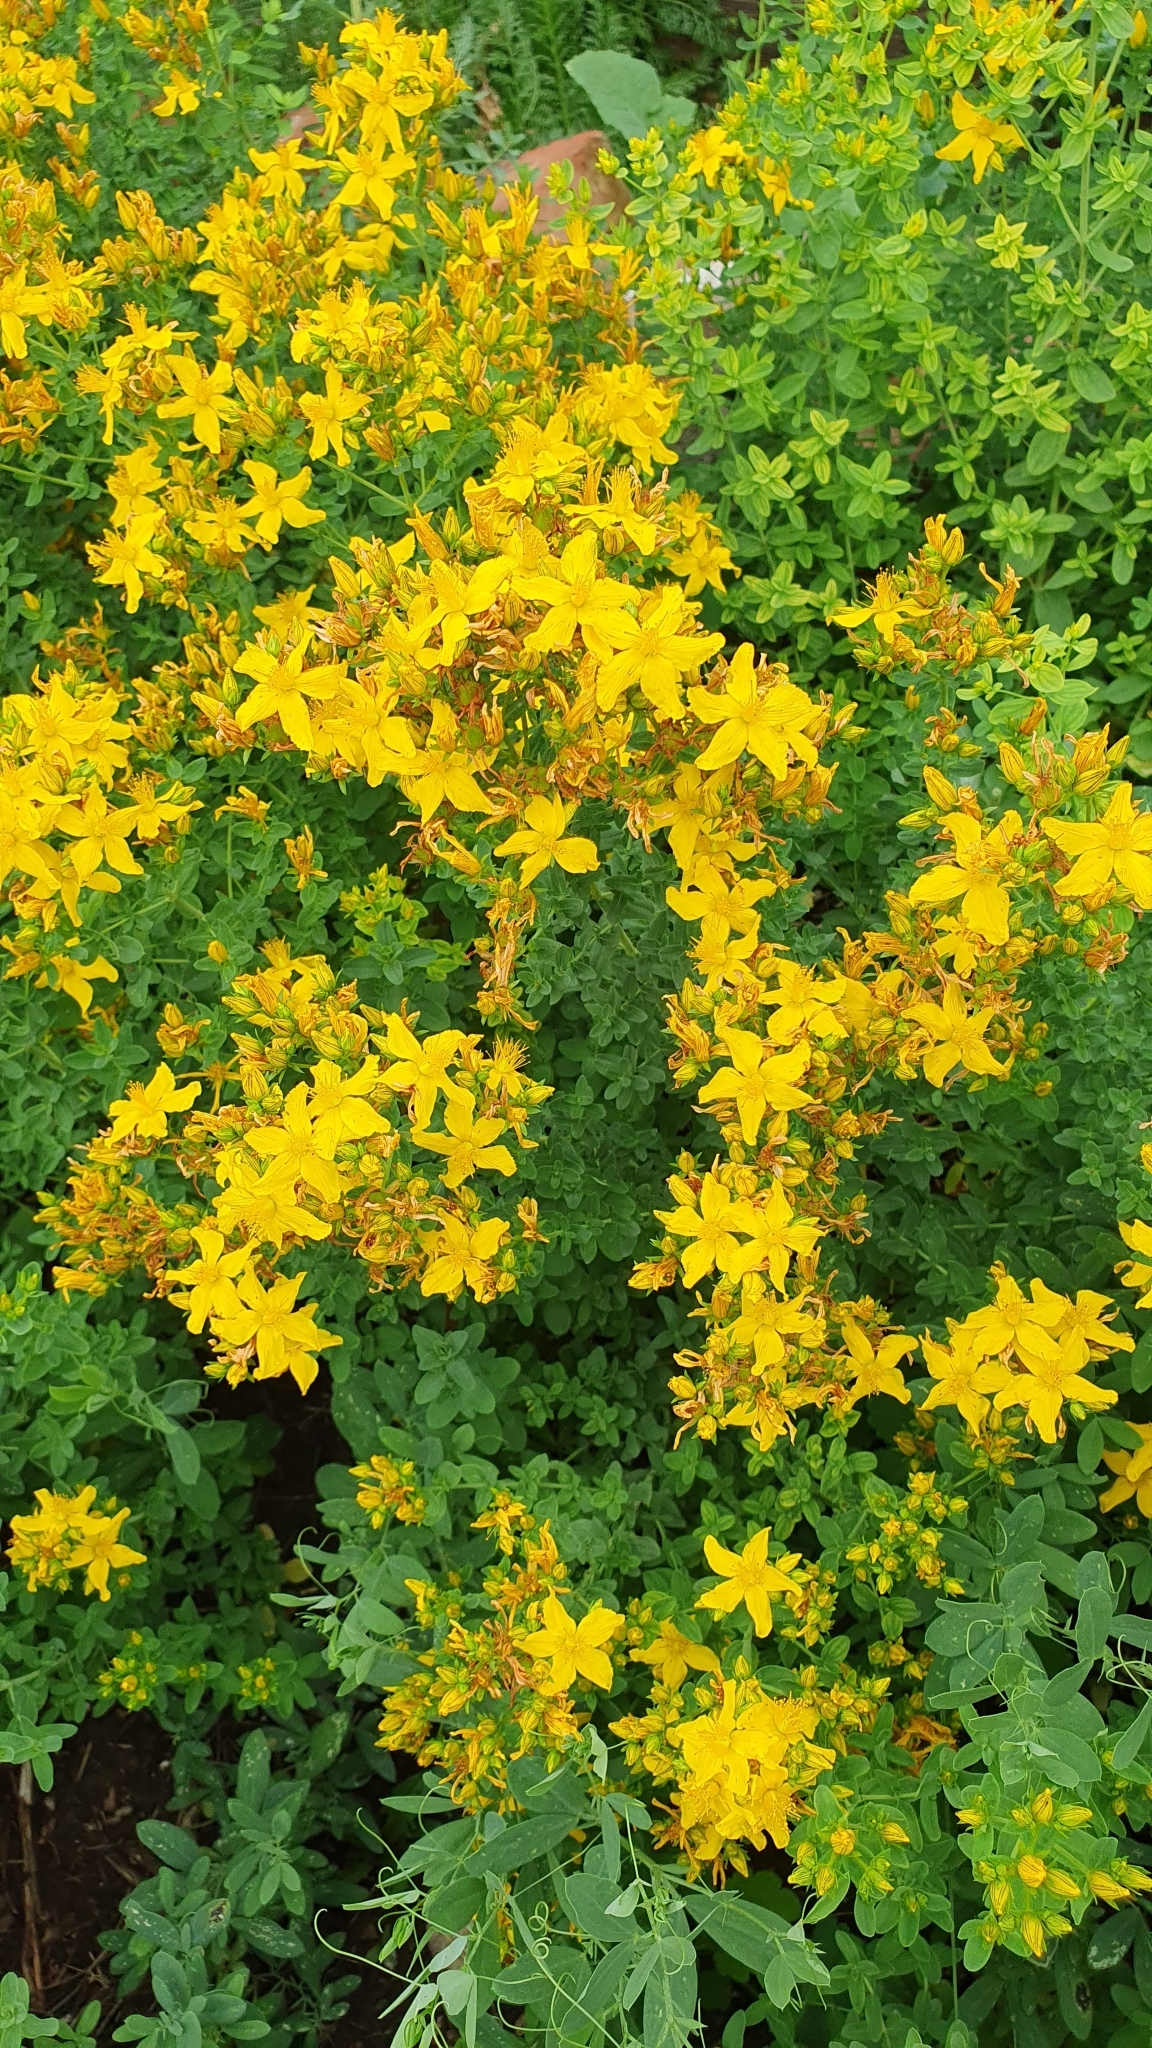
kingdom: Plantae
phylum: Tracheophyta
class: Magnoliopsida
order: Malpighiales
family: Hypericaceae
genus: Hypericum
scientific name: Hypericum perforatum
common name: Common st. johnswort
